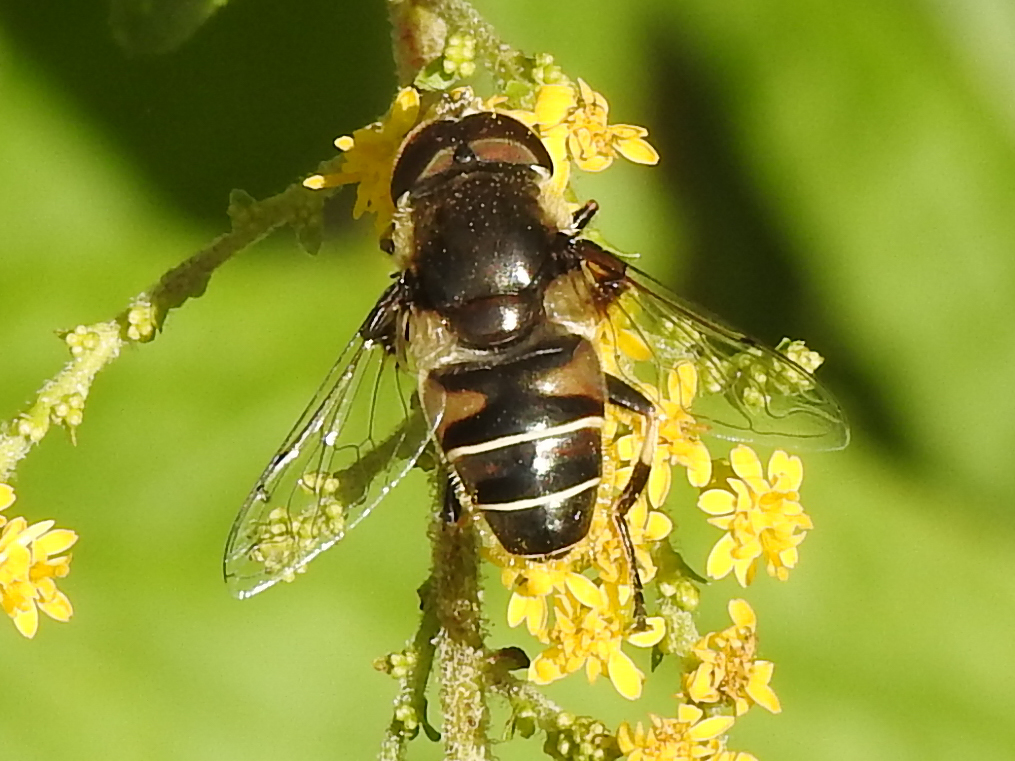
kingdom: Animalia
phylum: Arthropoda
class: Insecta
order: Diptera
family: Syrphidae
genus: Eristalis
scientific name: Eristalis dimidiata
